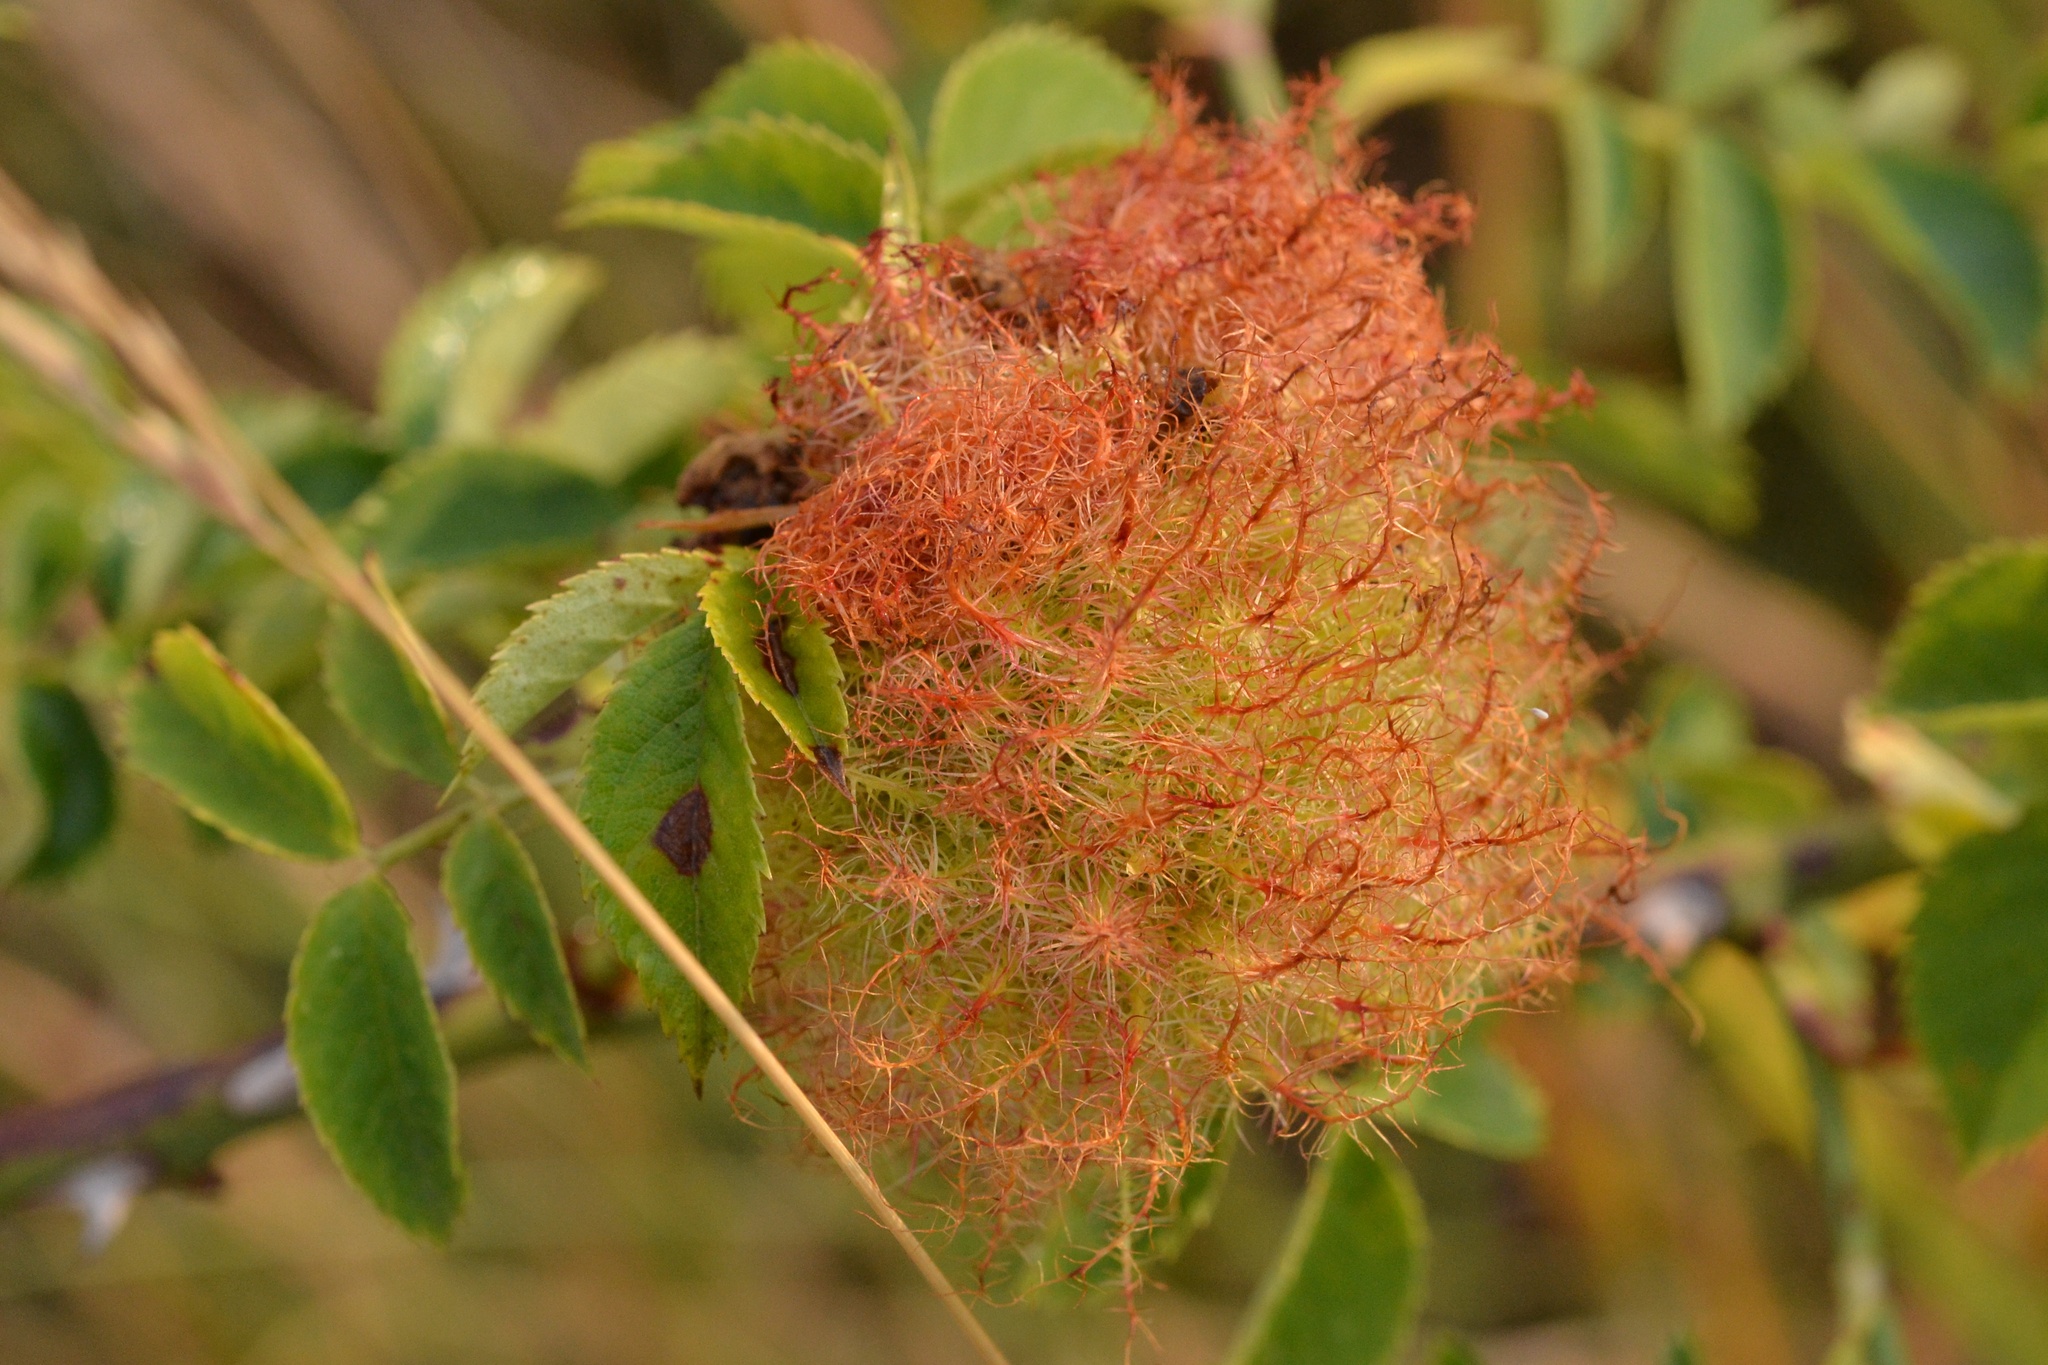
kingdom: Animalia
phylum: Arthropoda
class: Insecta
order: Hymenoptera
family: Cynipidae
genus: Diplolepis
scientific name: Diplolepis rosae
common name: Bedeguar gall
